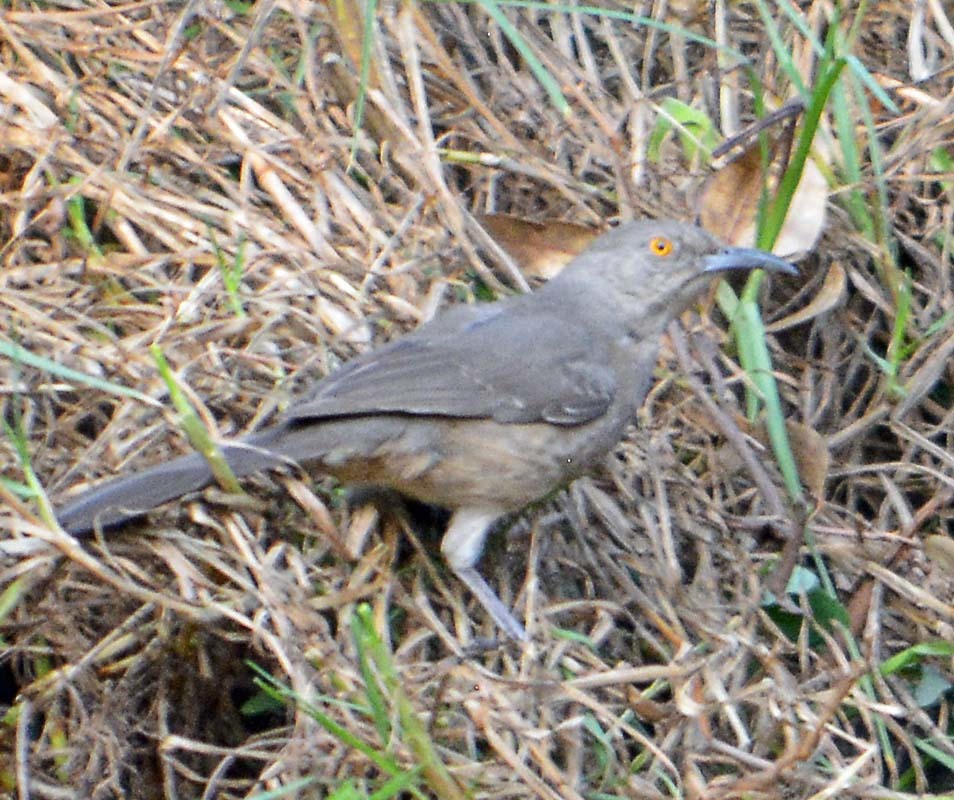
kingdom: Animalia
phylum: Chordata
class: Aves
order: Passeriformes
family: Mimidae
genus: Toxostoma
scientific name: Toxostoma curvirostre
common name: Curve-billed thrasher
